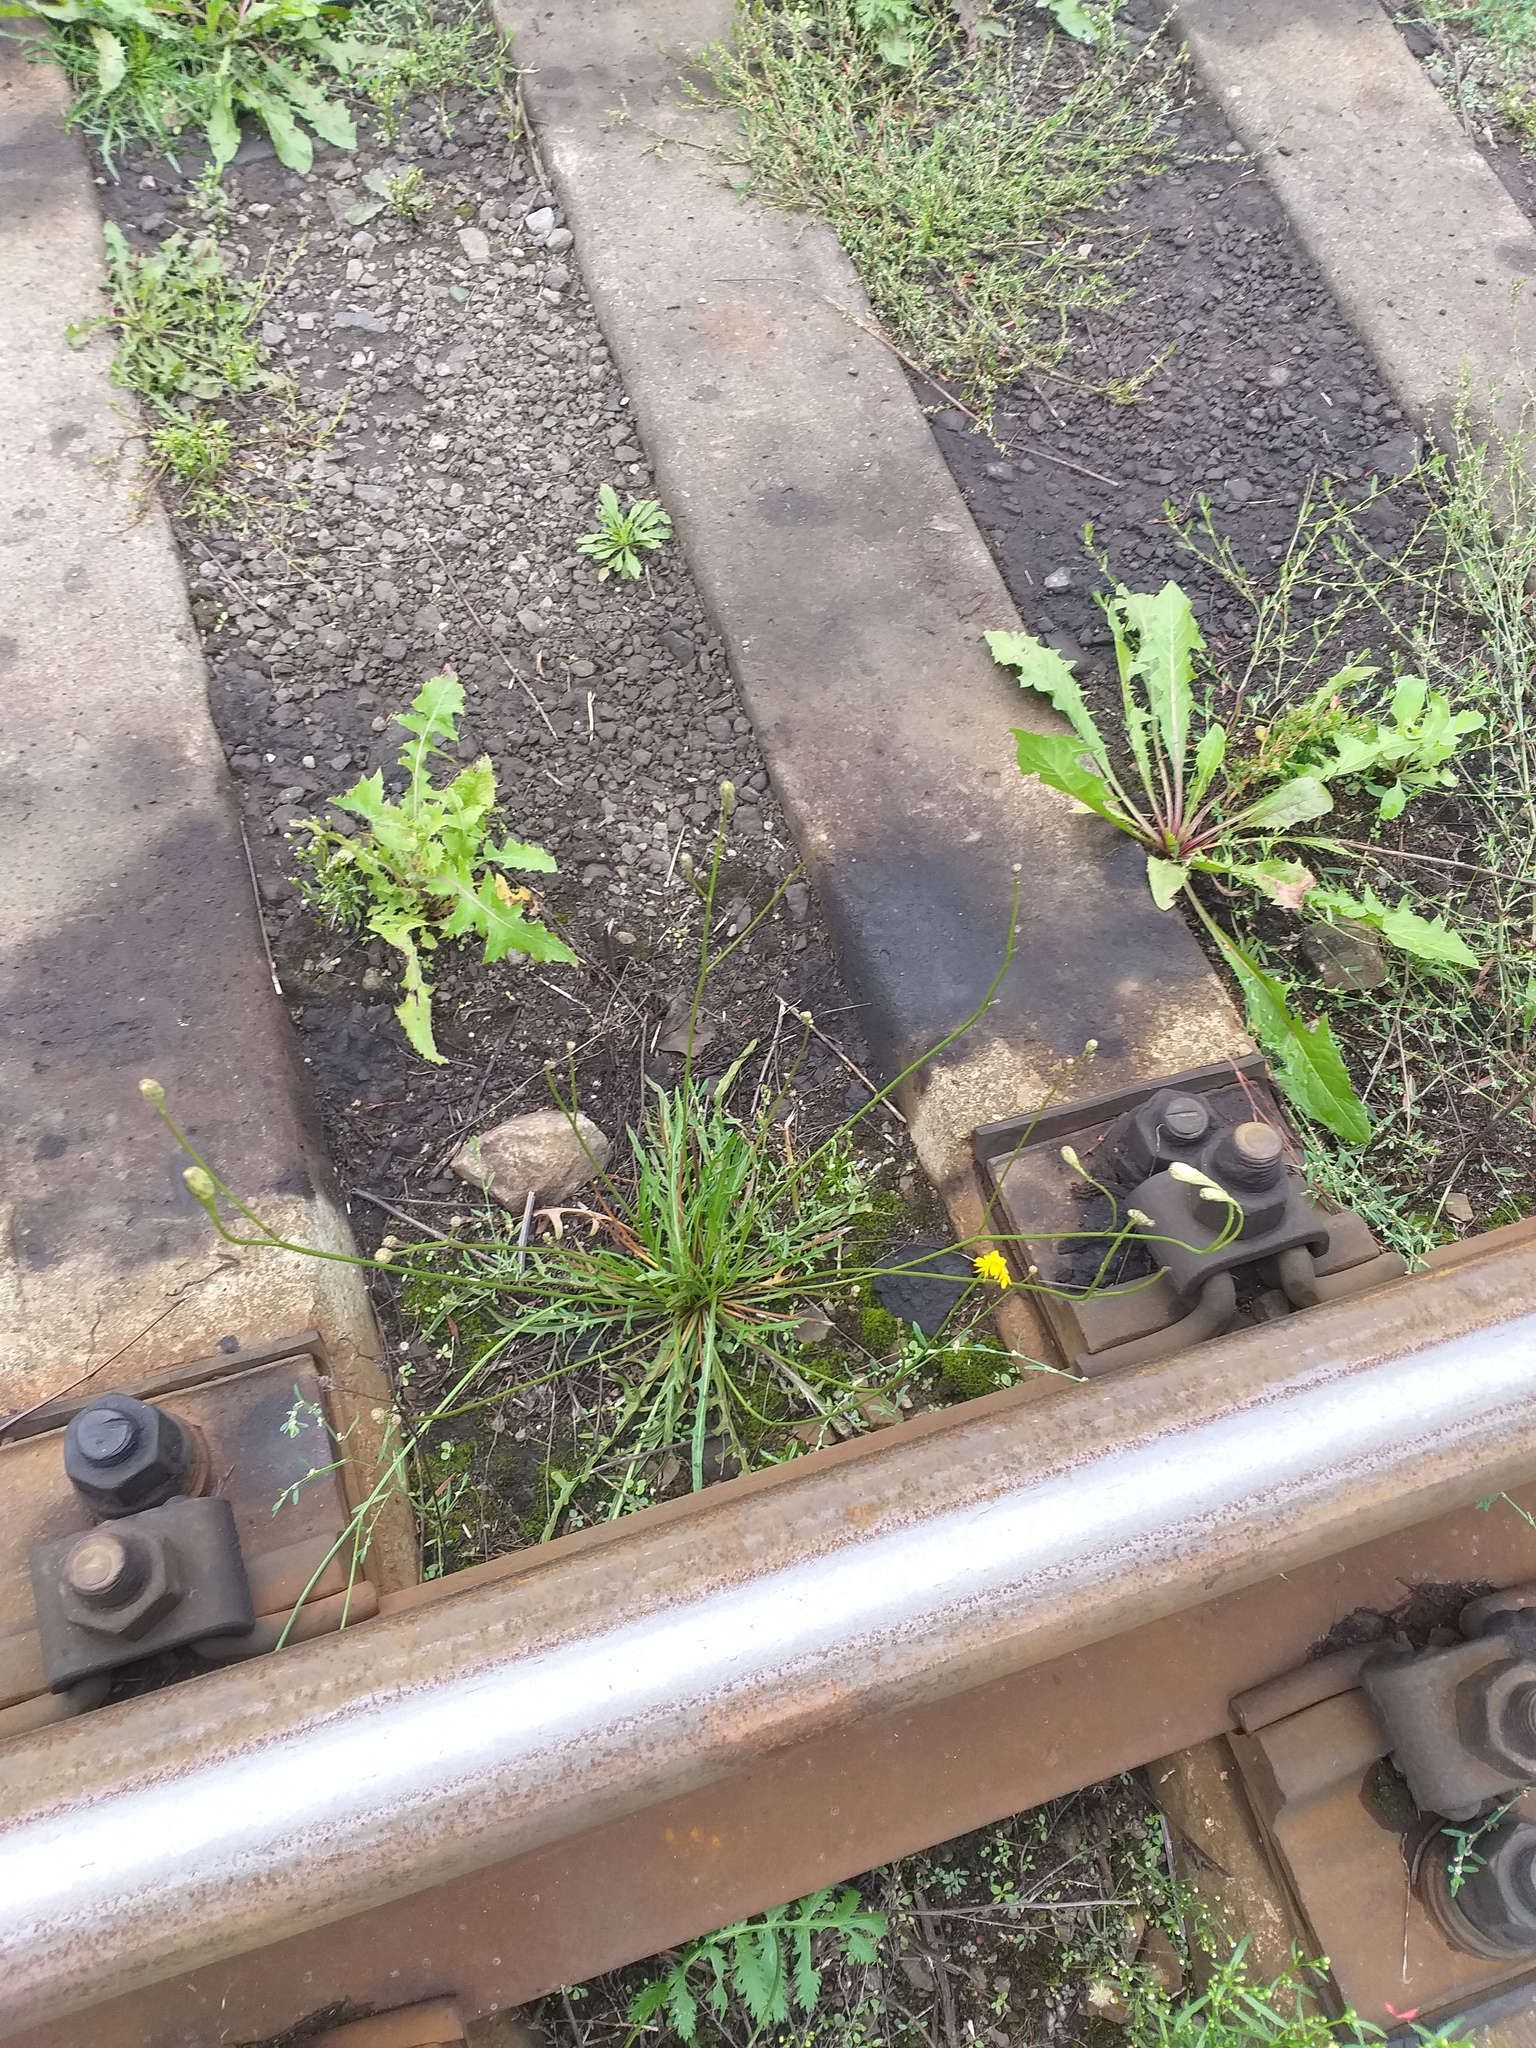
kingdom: Plantae
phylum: Tracheophyta
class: Magnoliopsida
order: Asterales
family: Asteraceae
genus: Scorzoneroides
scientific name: Scorzoneroides autumnalis
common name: Autumn hawkbit
